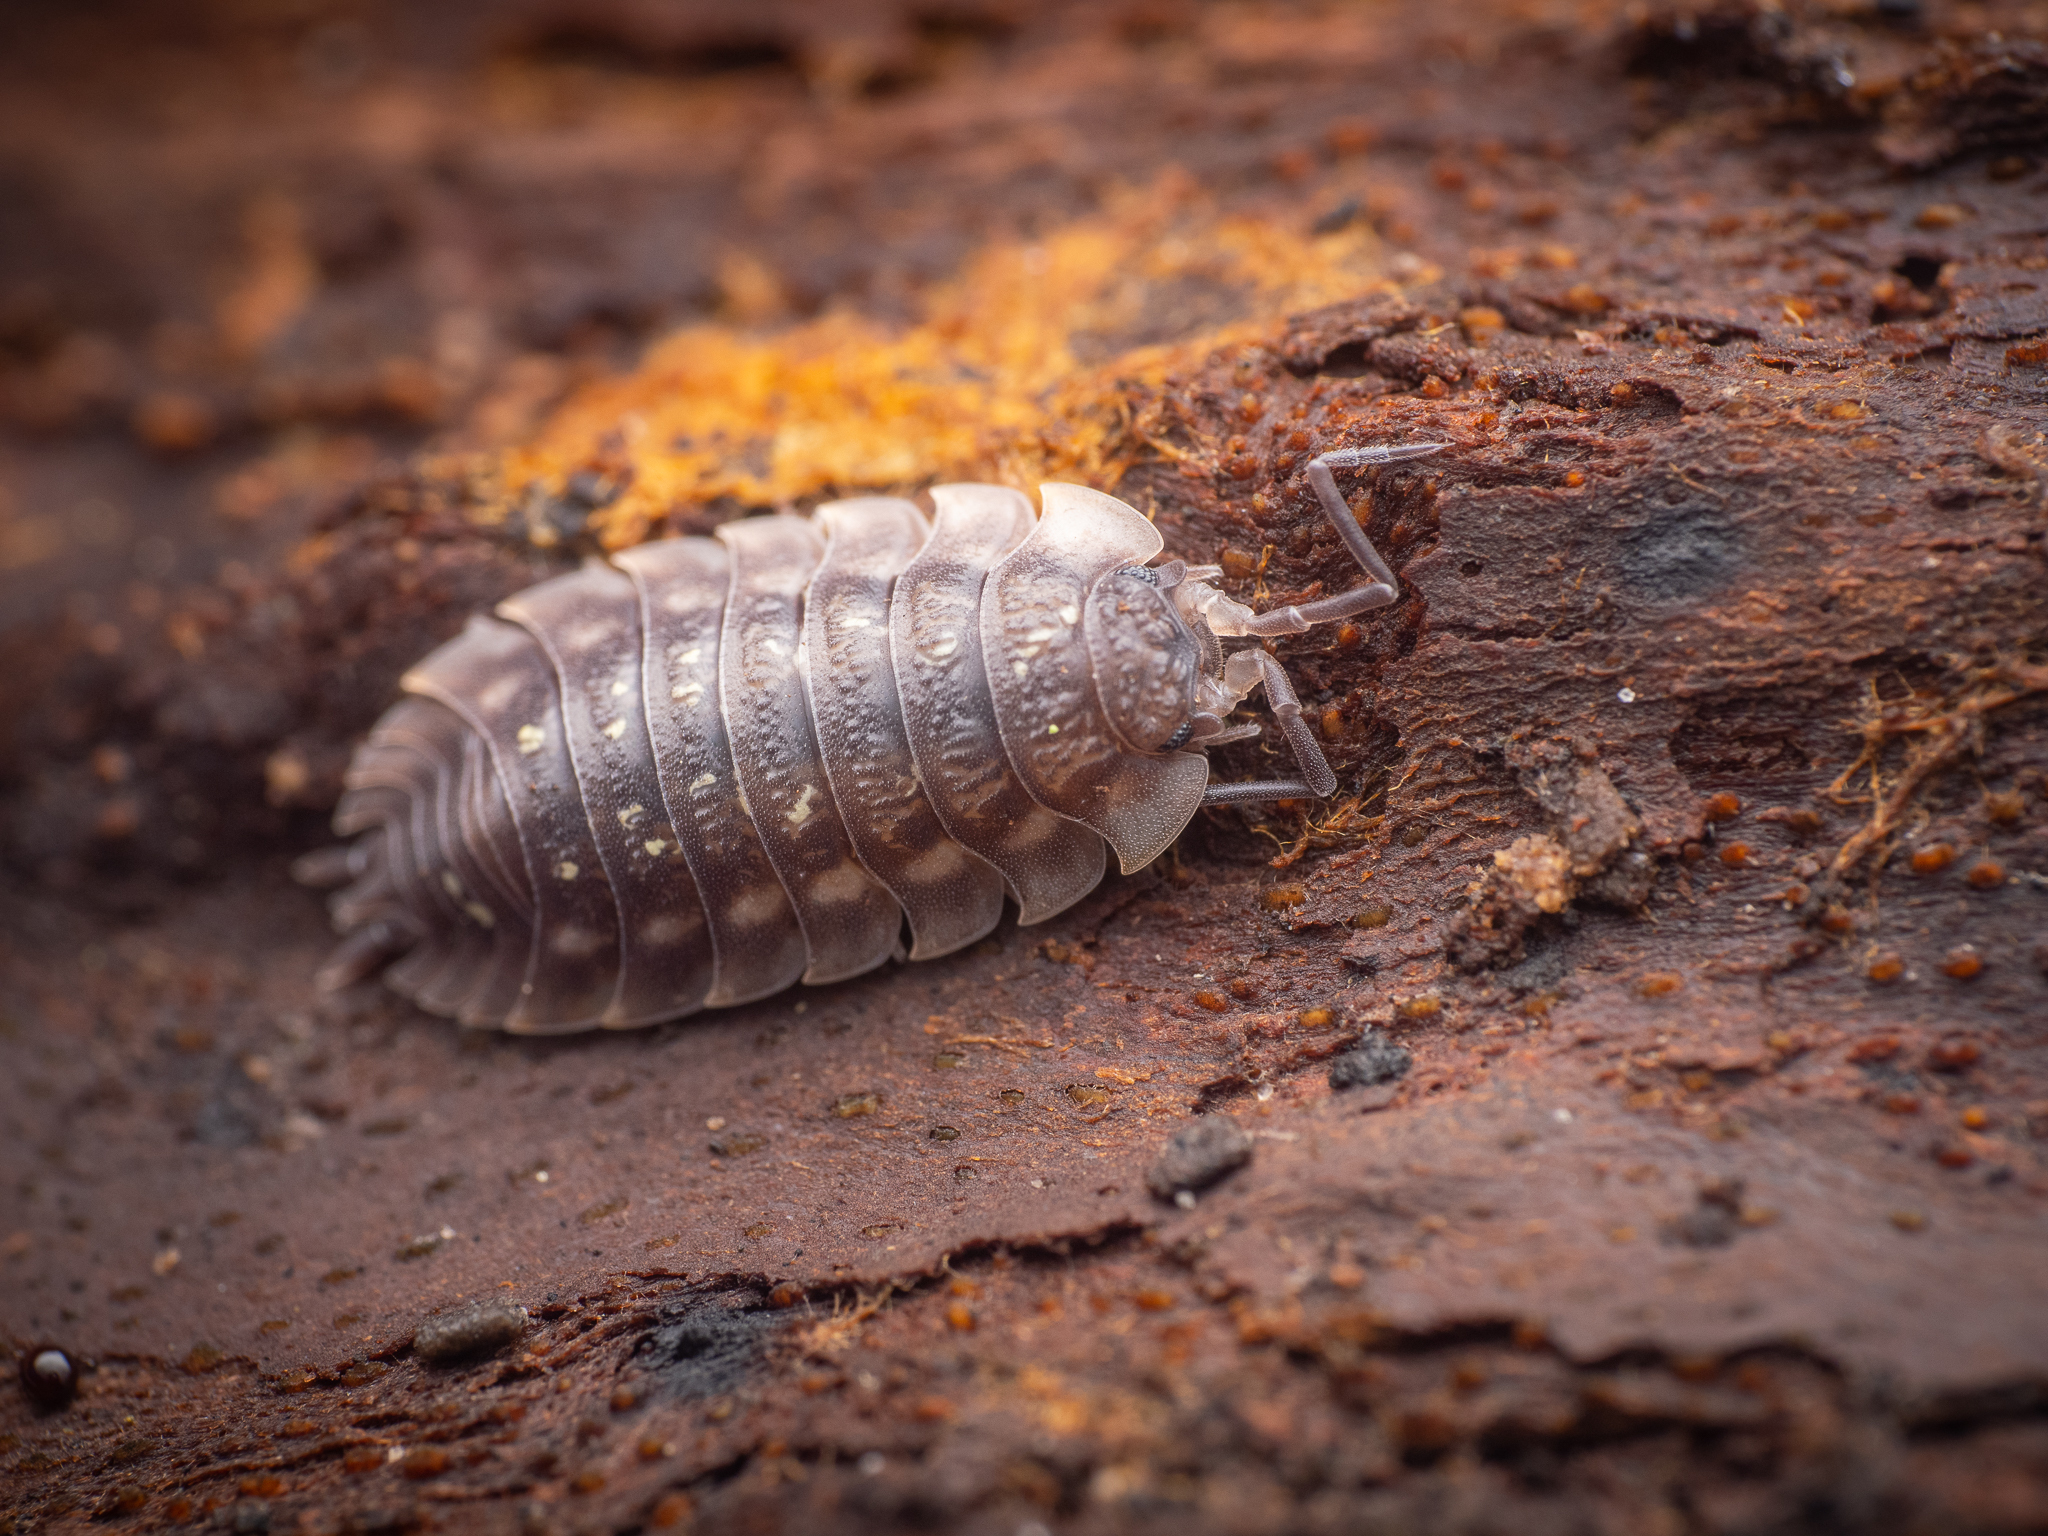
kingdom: Animalia
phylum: Arthropoda
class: Malacostraca
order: Isopoda
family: Oniscidae
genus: Oniscus
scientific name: Oniscus asellus
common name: Common shiny woodlouse
